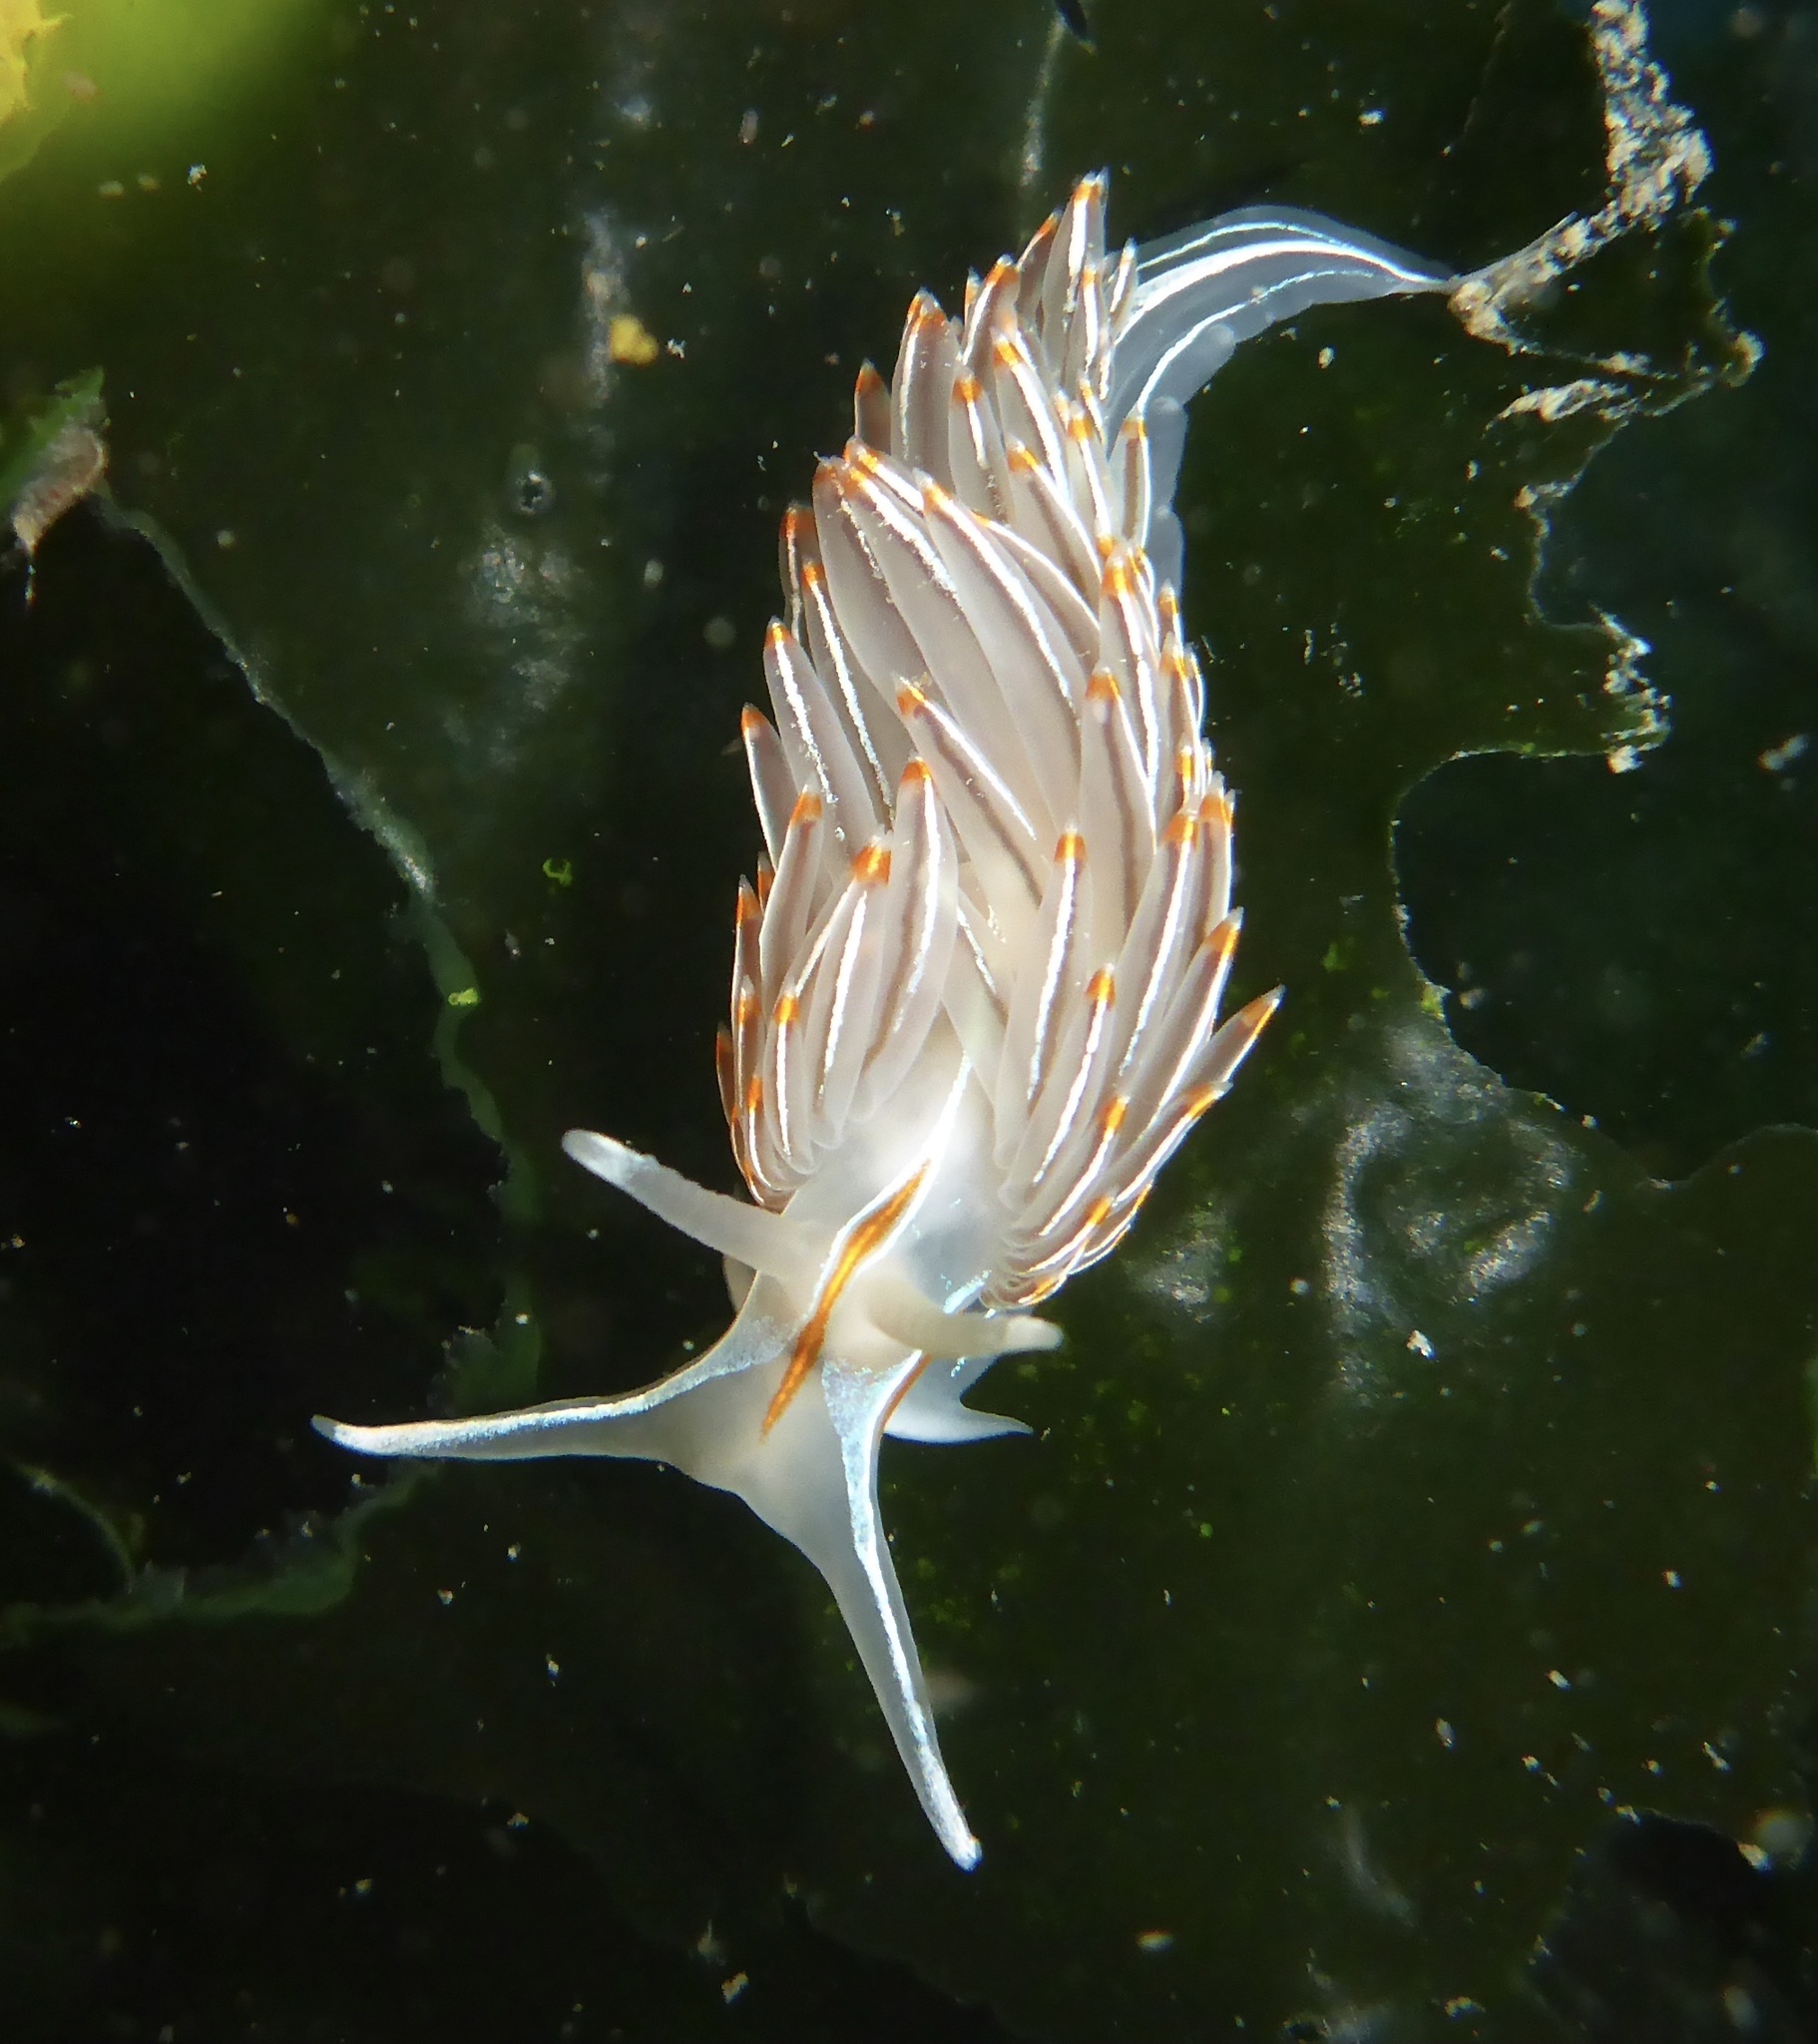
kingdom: Animalia
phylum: Mollusca
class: Gastropoda
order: Nudibranchia
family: Myrrhinidae
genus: Hermissenda
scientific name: Hermissenda crassicornis
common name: Hermissenda
